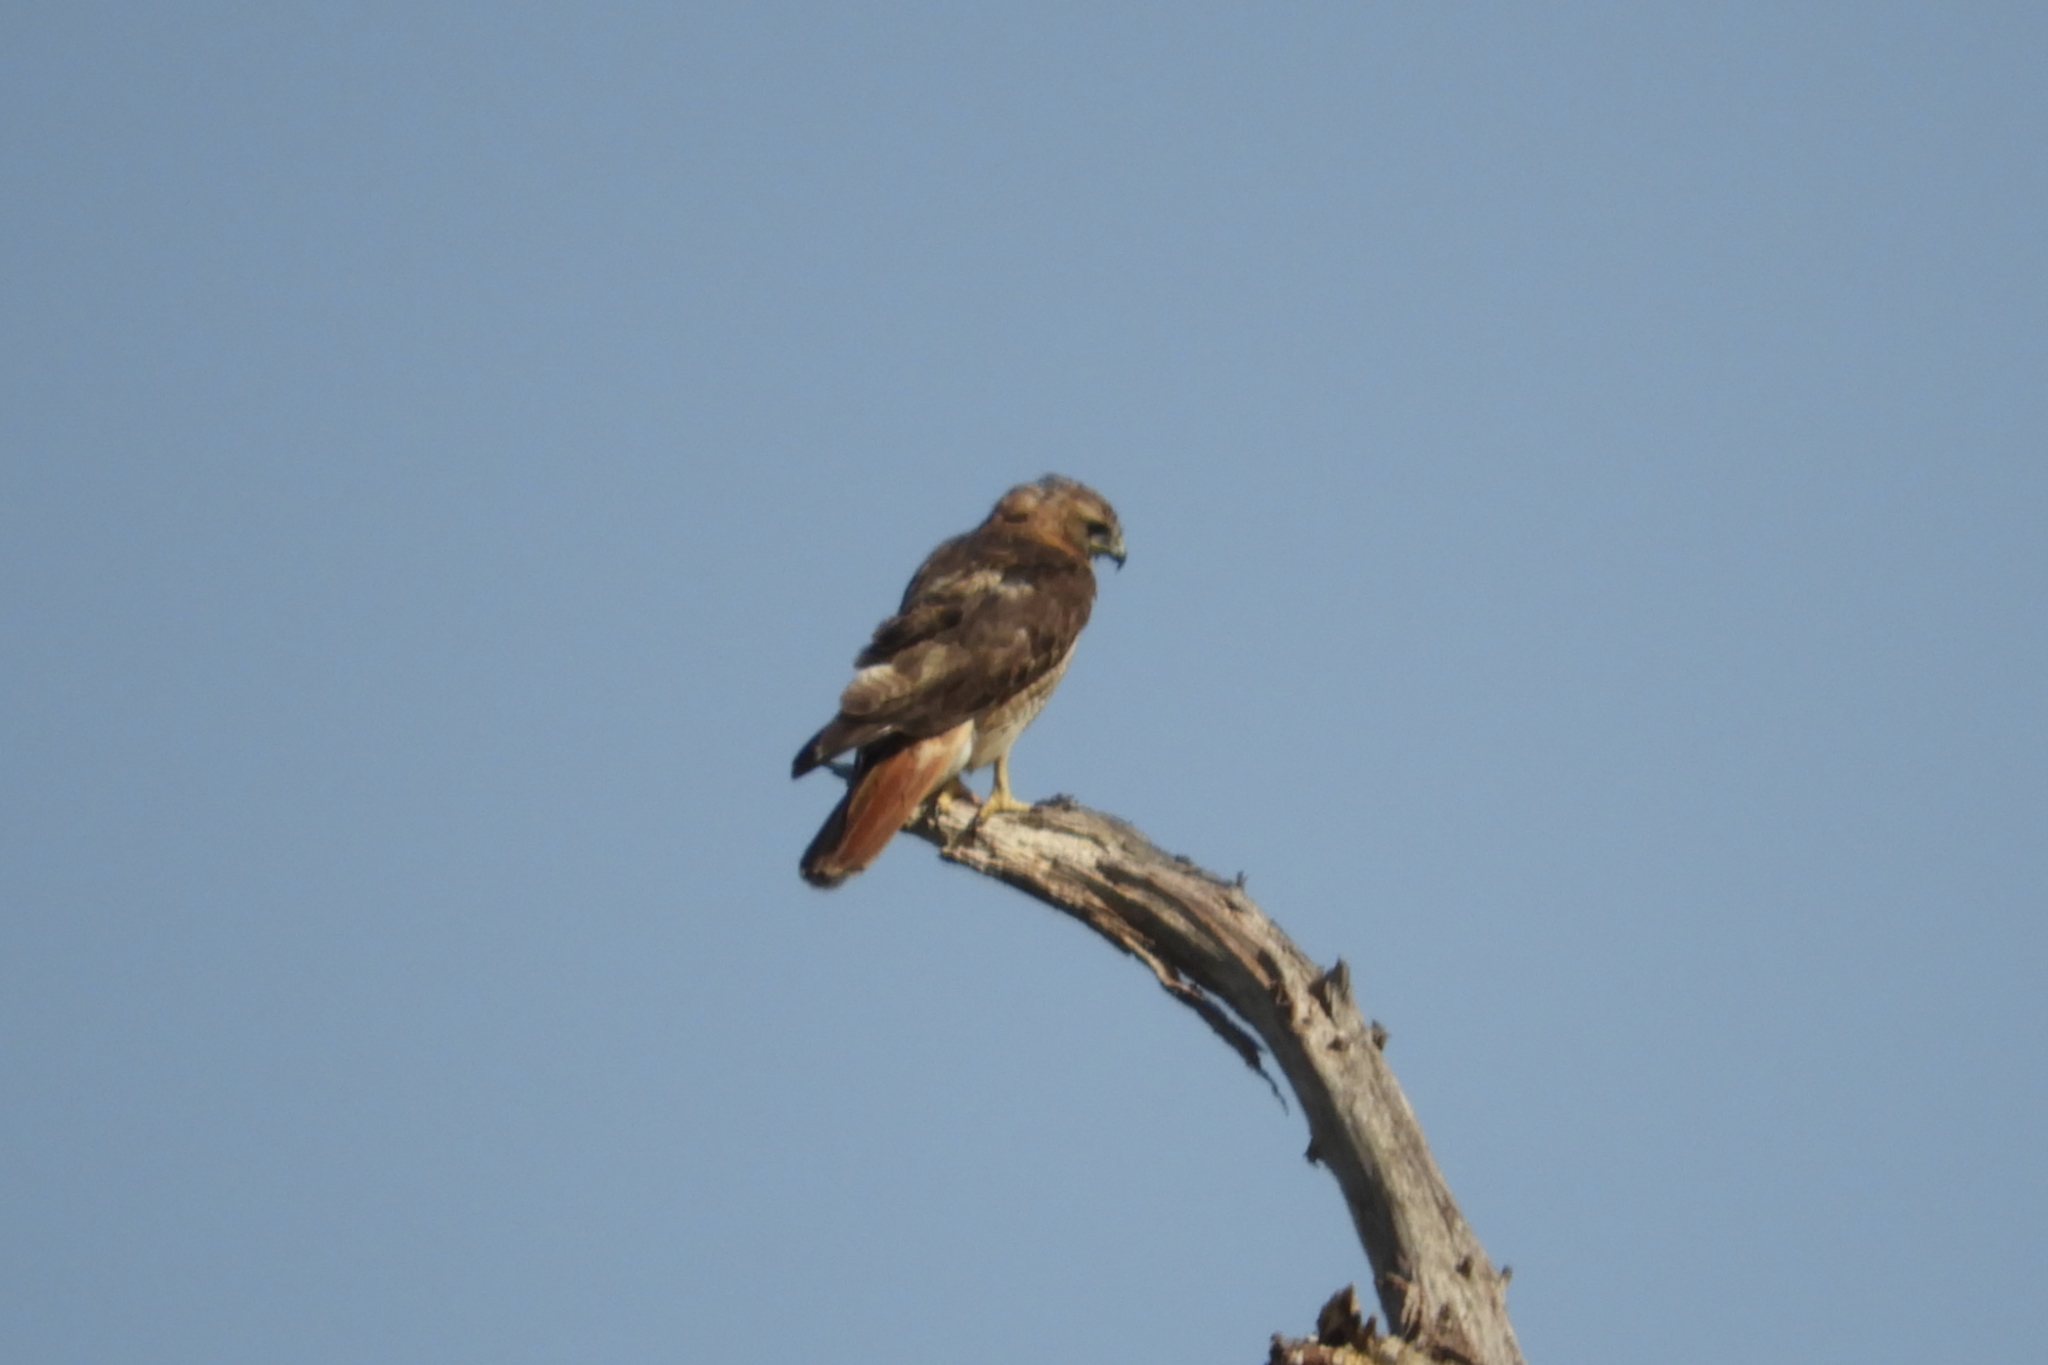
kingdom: Animalia
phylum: Chordata
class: Aves
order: Accipitriformes
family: Accipitridae
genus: Buteo
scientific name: Buteo jamaicensis
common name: Red-tailed hawk
